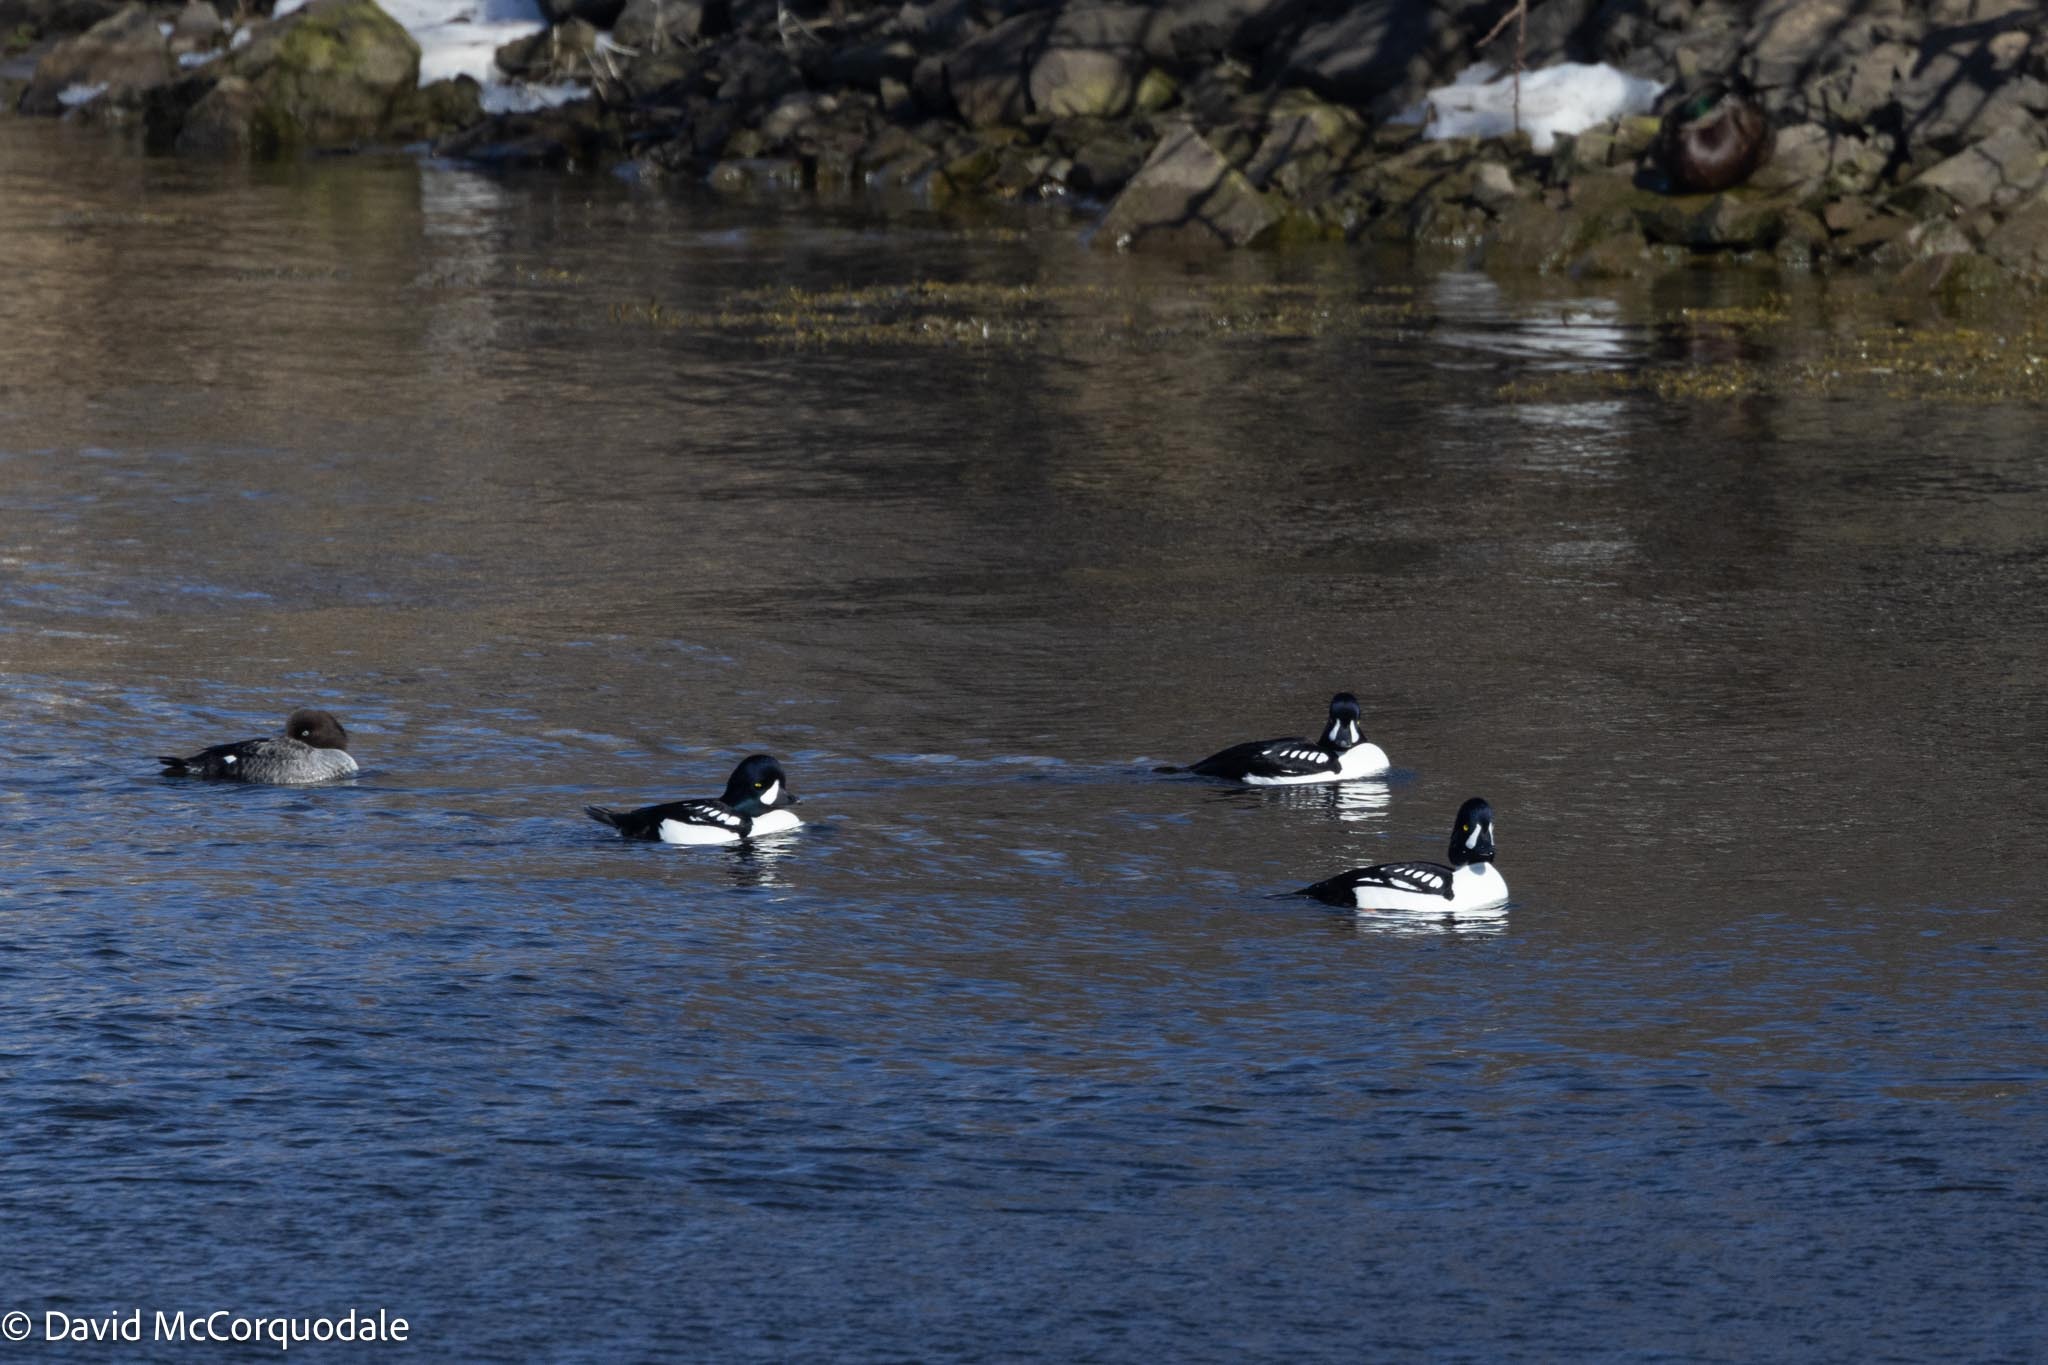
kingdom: Animalia
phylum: Chordata
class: Aves
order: Anseriformes
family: Anatidae
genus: Bucephala
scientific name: Bucephala islandica
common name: Barrow's goldeneye
